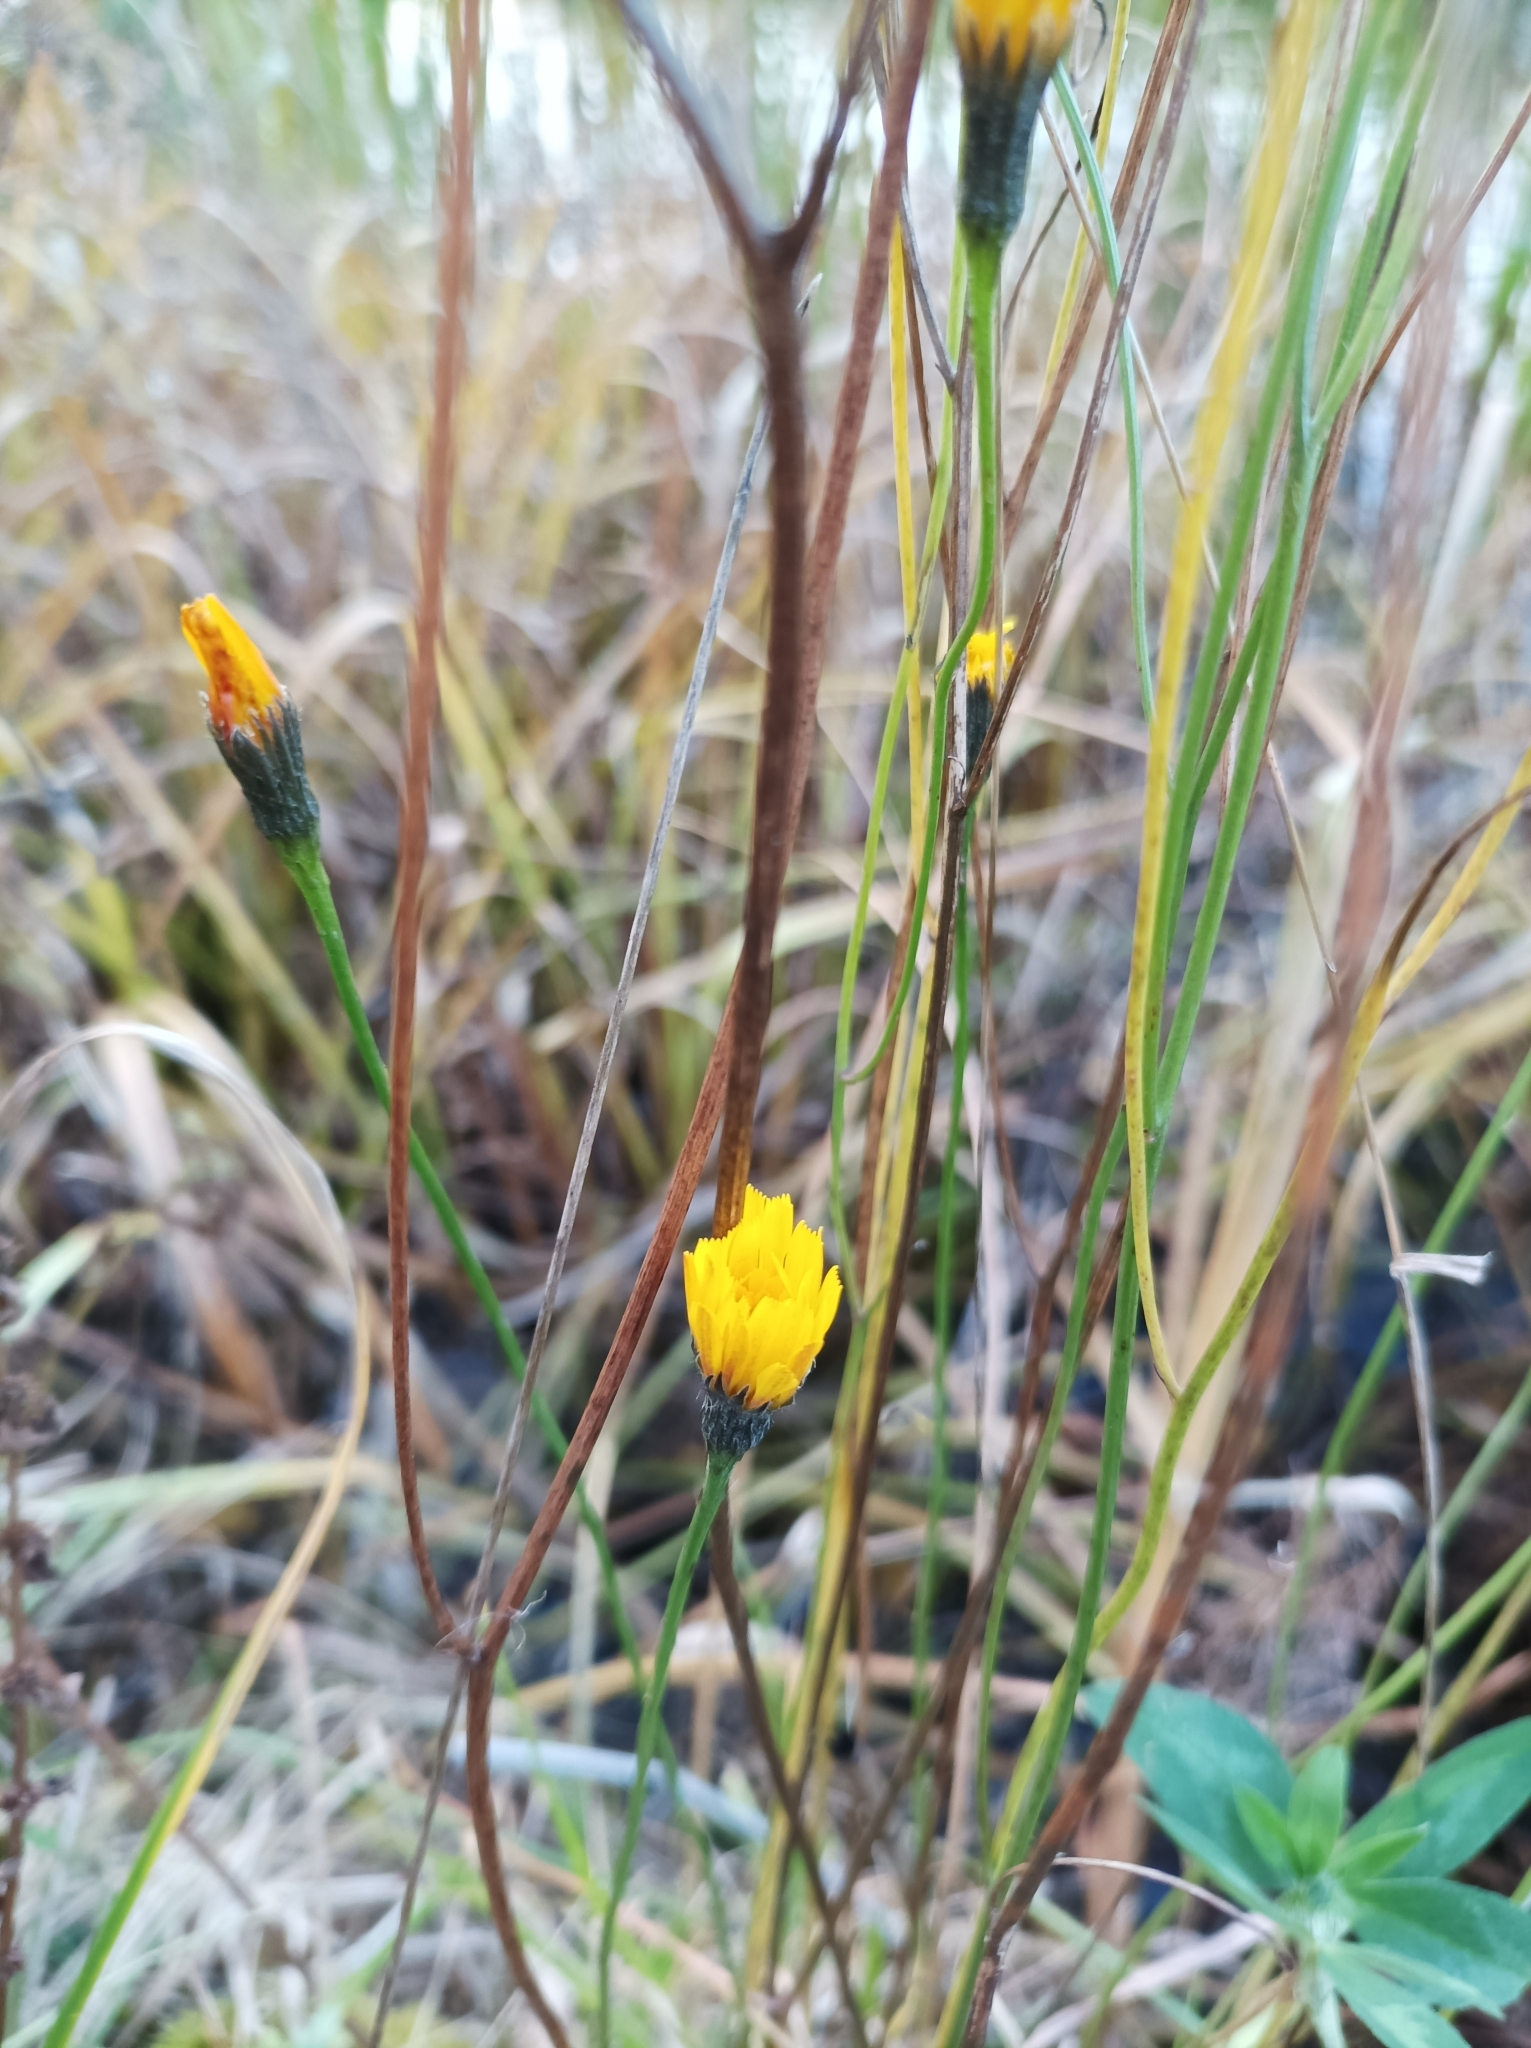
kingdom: Plantae
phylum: Tracheophyta
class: Magnoliopsida
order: Asterales
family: Asteraceae
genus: Scorzoneroides
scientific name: Scorzoneroides autumnalis
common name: Autumn hawkbit
